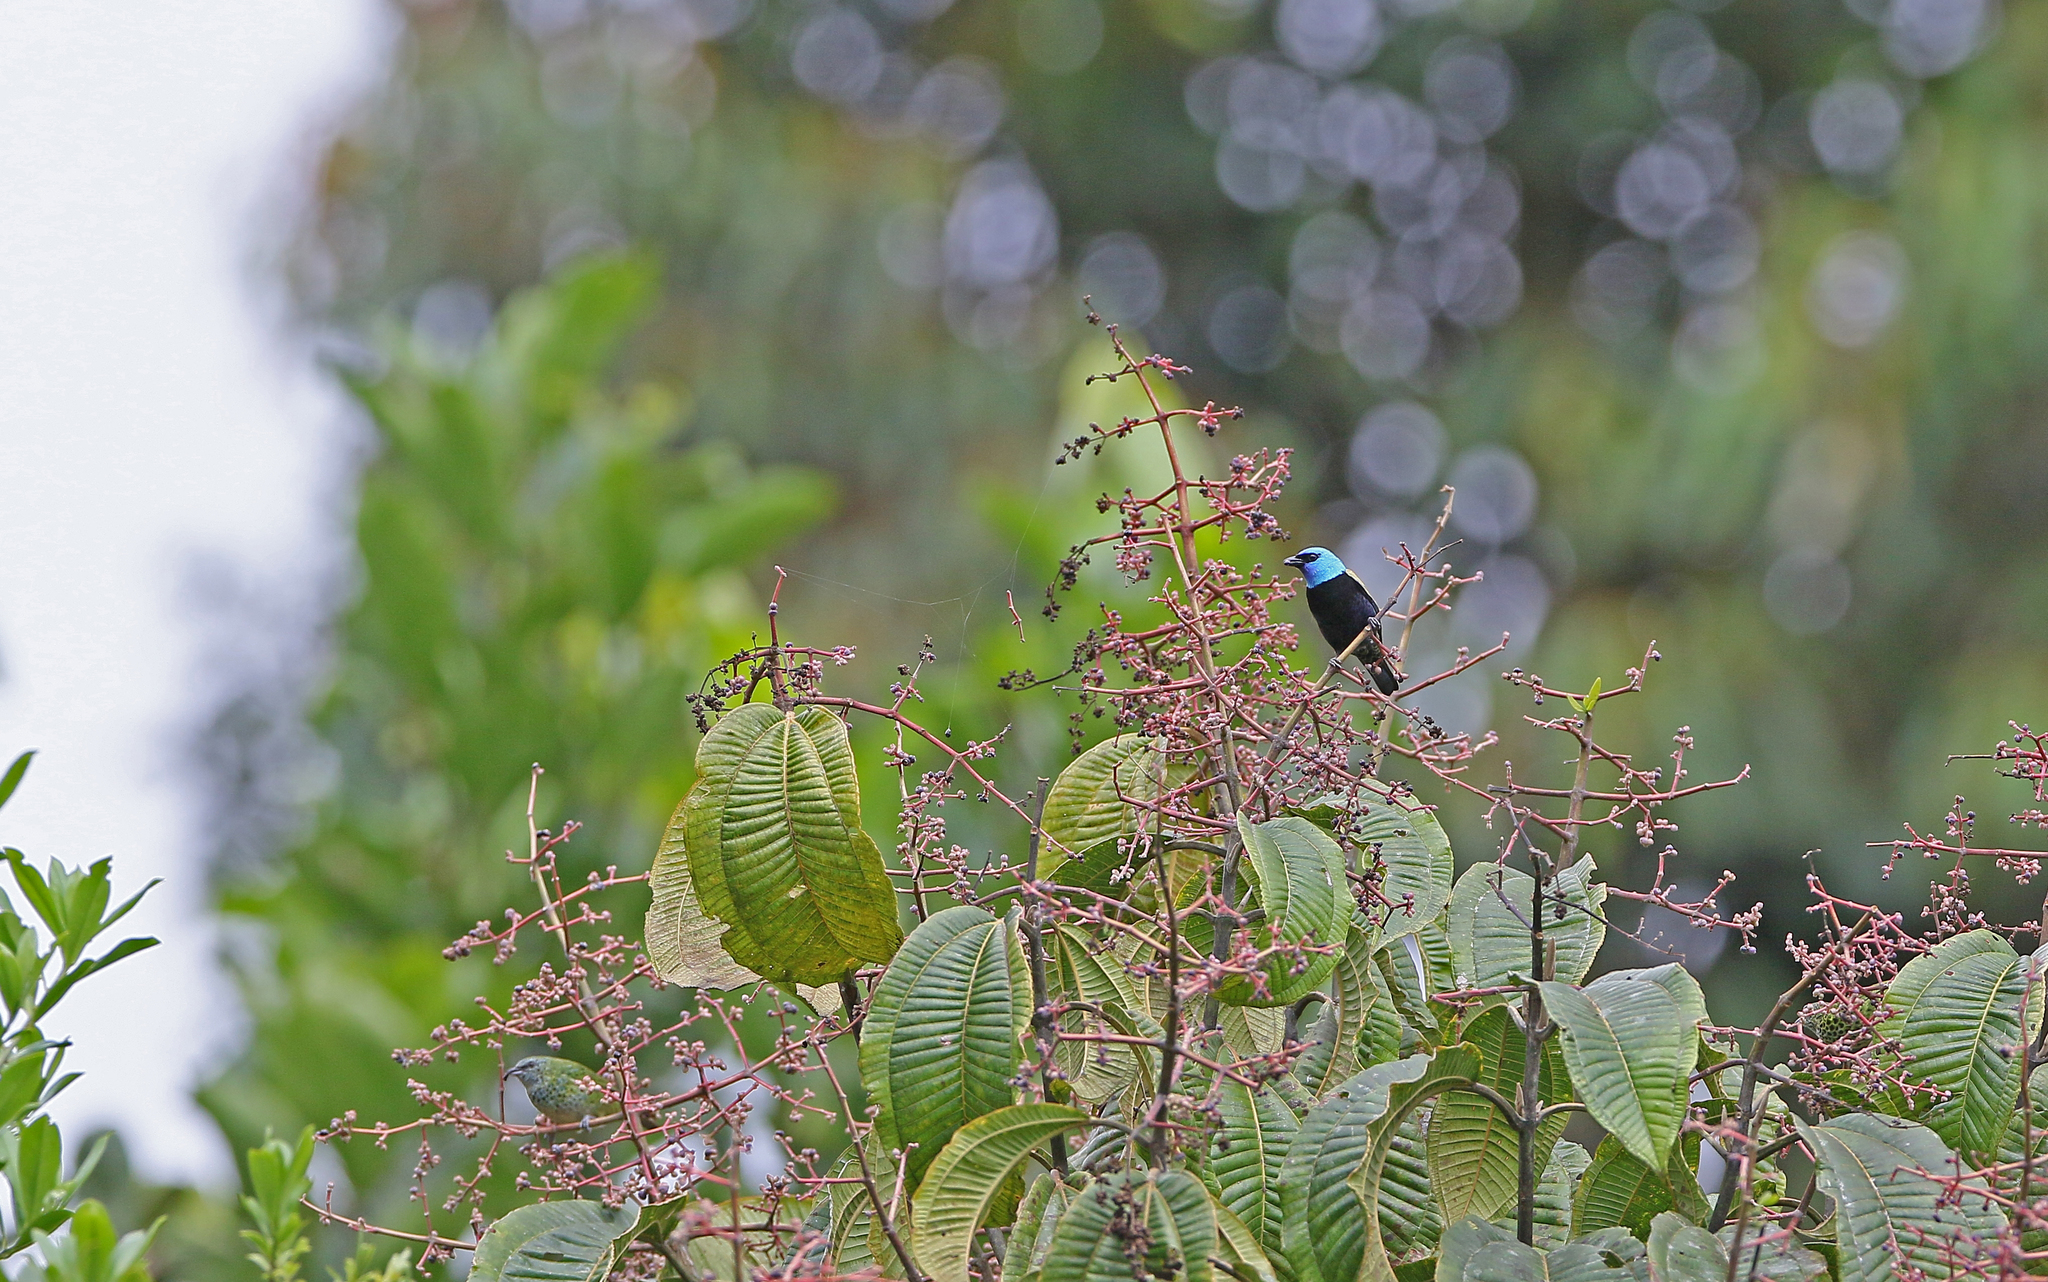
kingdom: Animalia
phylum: Chordata
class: Aves
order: Passeriformes
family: Thraupidae
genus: Stilpnia
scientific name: Stilpnia cyanicollis
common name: Blue-necked tanager
